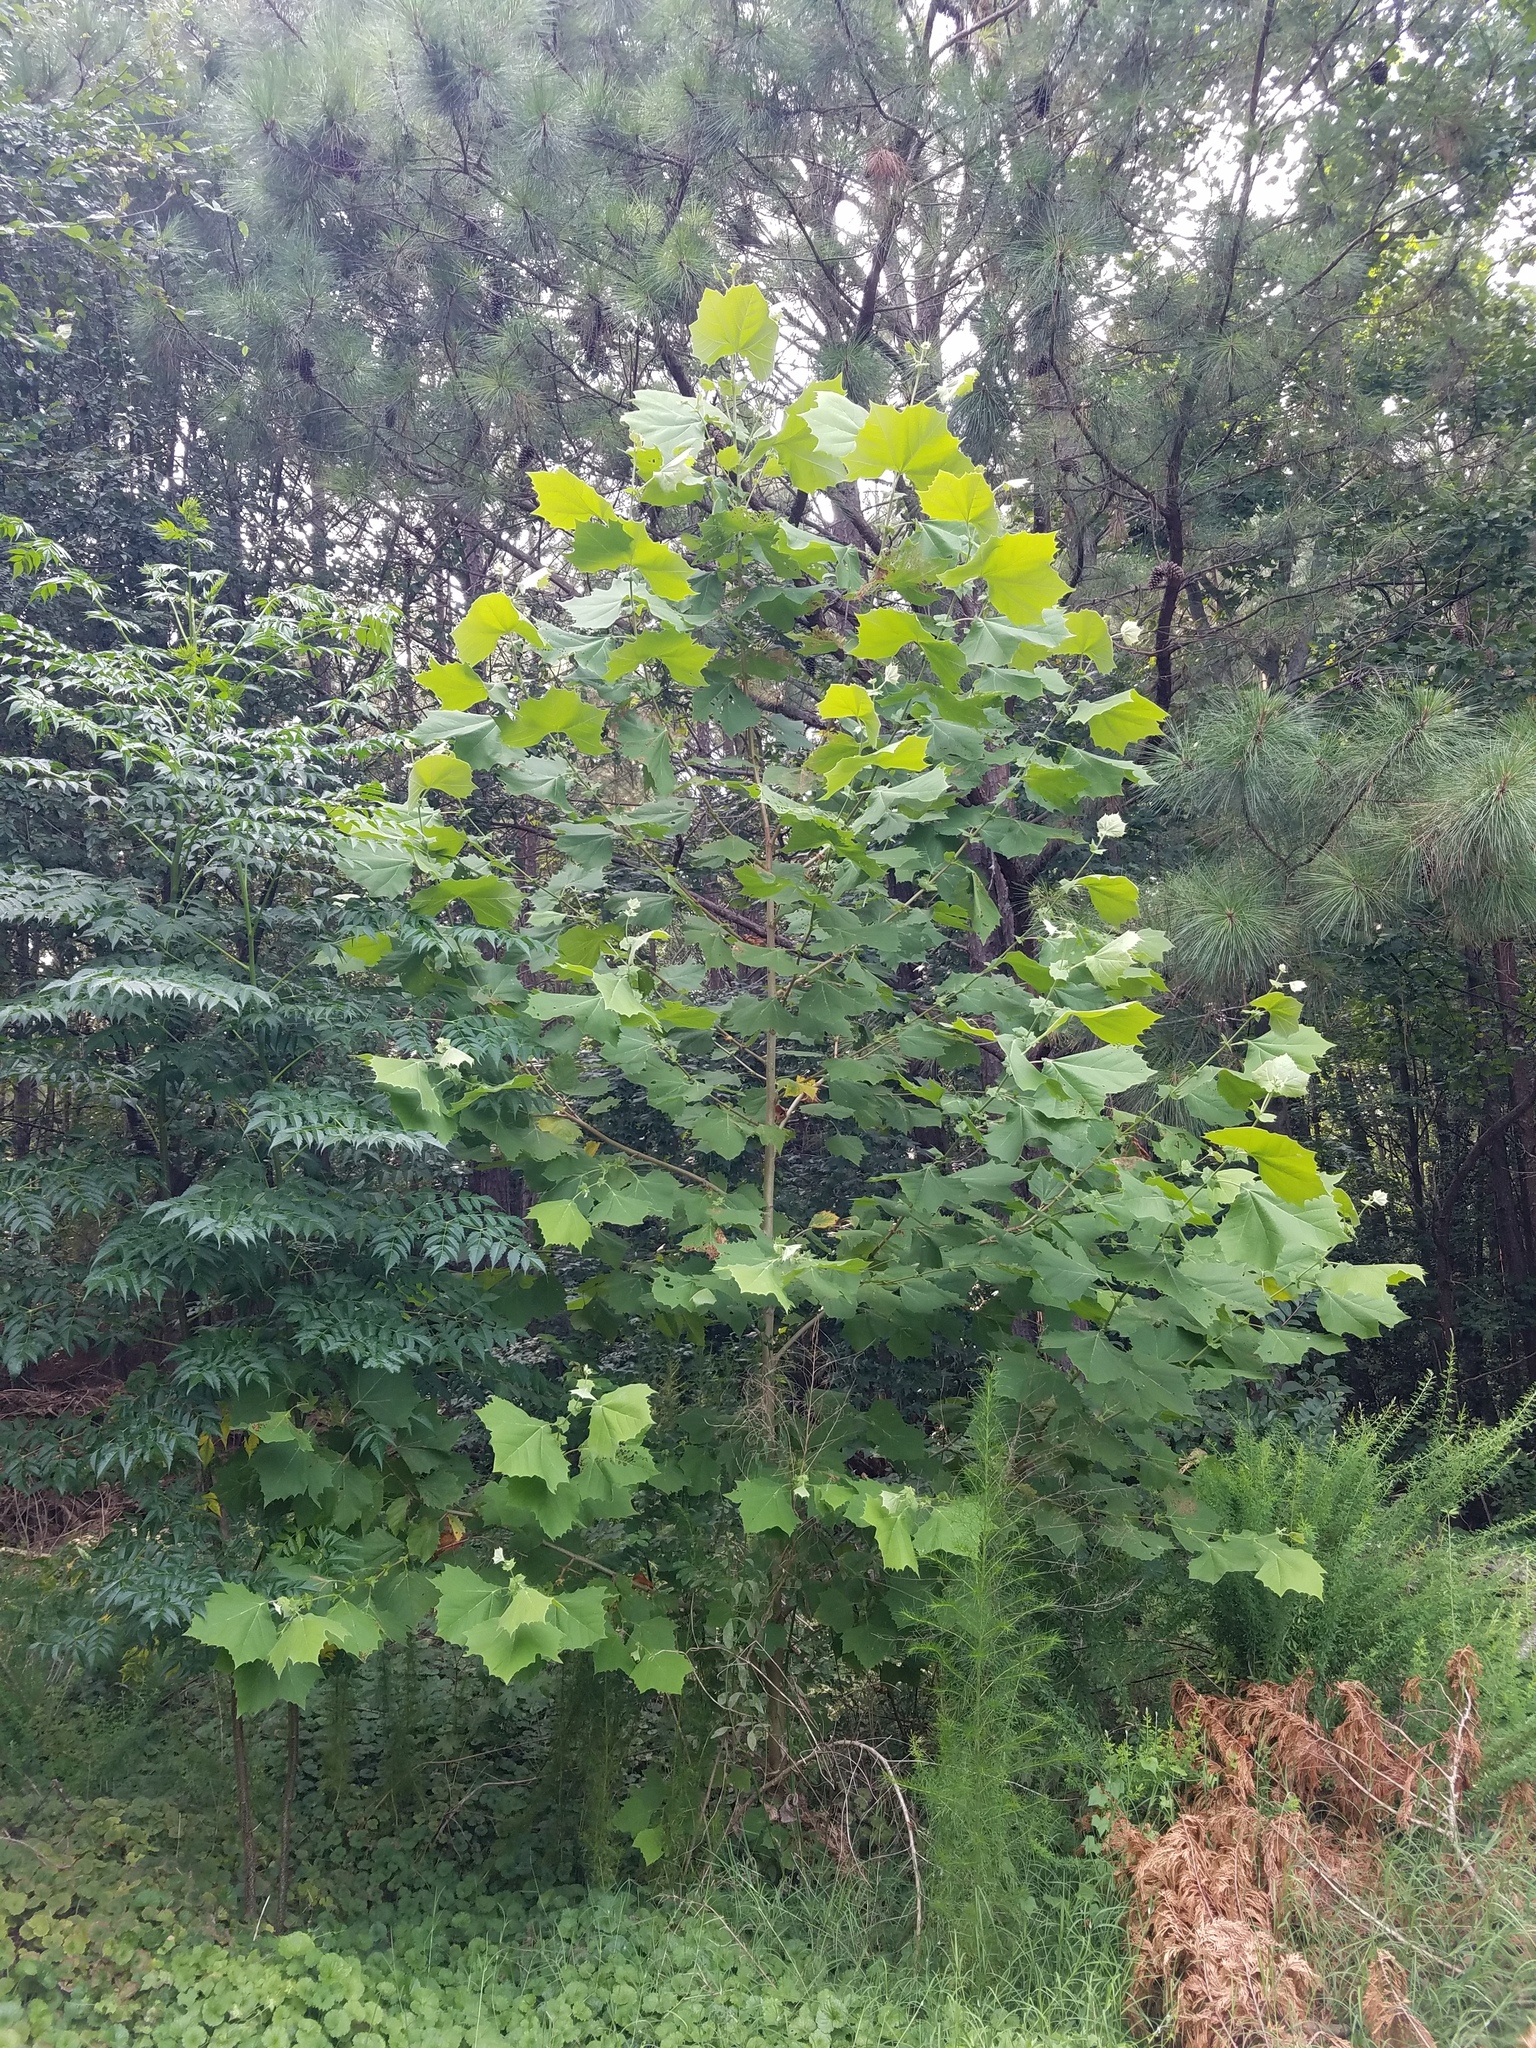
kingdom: Plantae
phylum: Tracheophyta
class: Magnoliopsida
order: Proteales
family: Platanaceae
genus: Platanus
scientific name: Platanus occidentalis
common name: American sycamore
